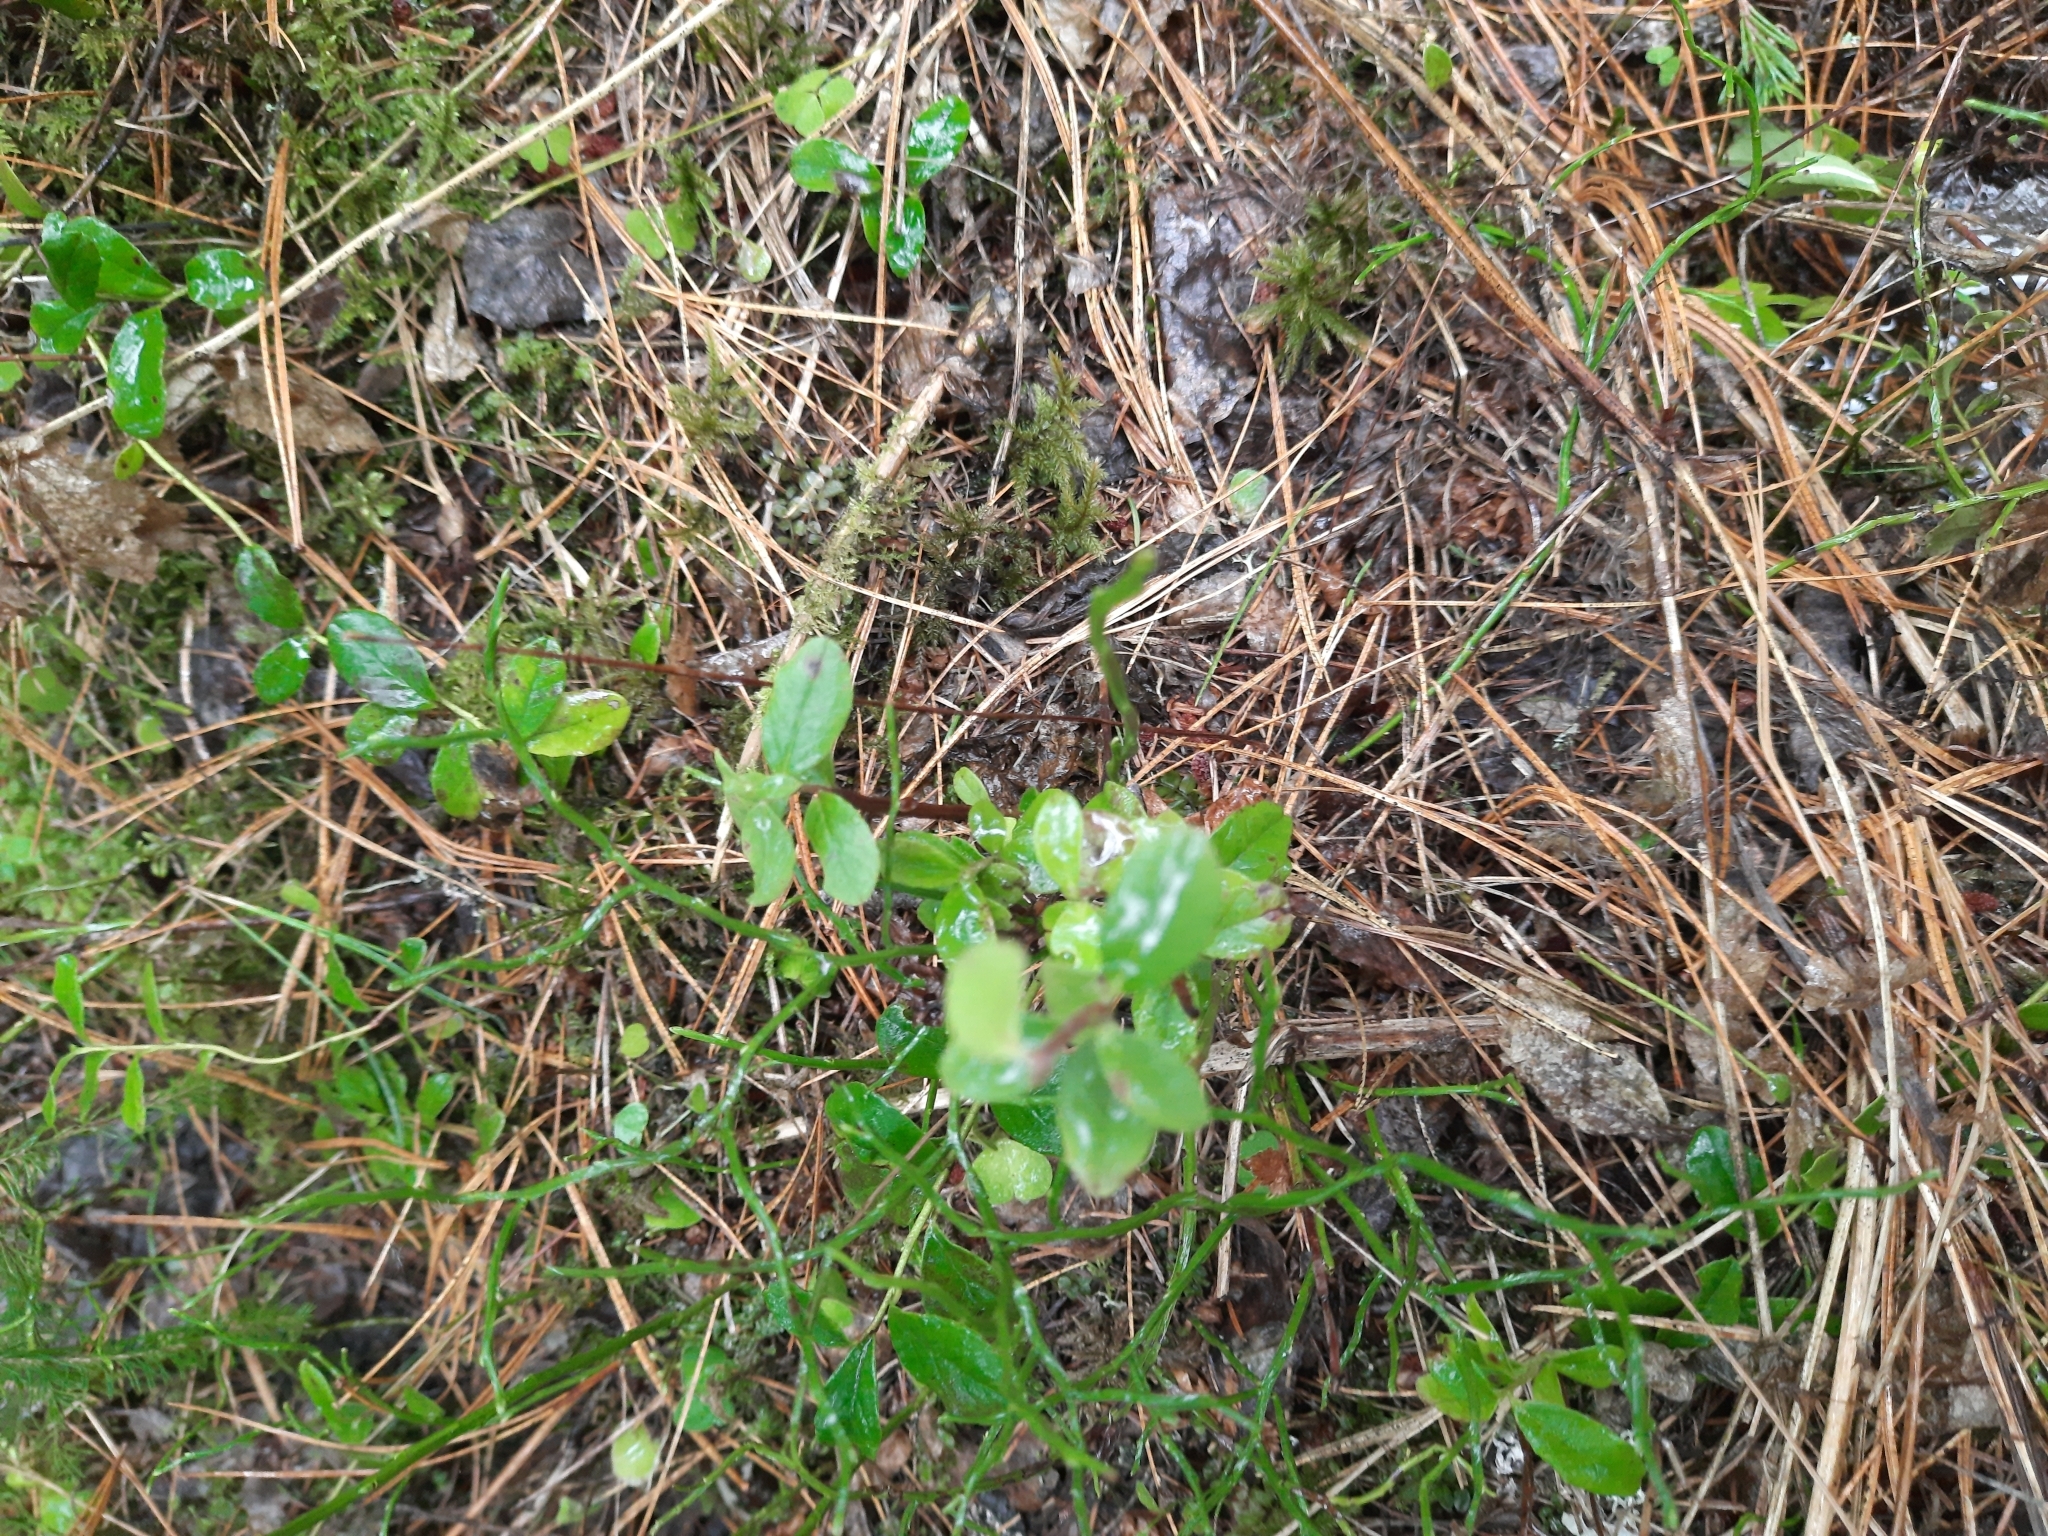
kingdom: Plantae
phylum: Tracheophyta
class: Magnoliopsida
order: Ericales
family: Ericaceae
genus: Vaccinium
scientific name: Vaccinium vitis-idaea
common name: Cowberry
